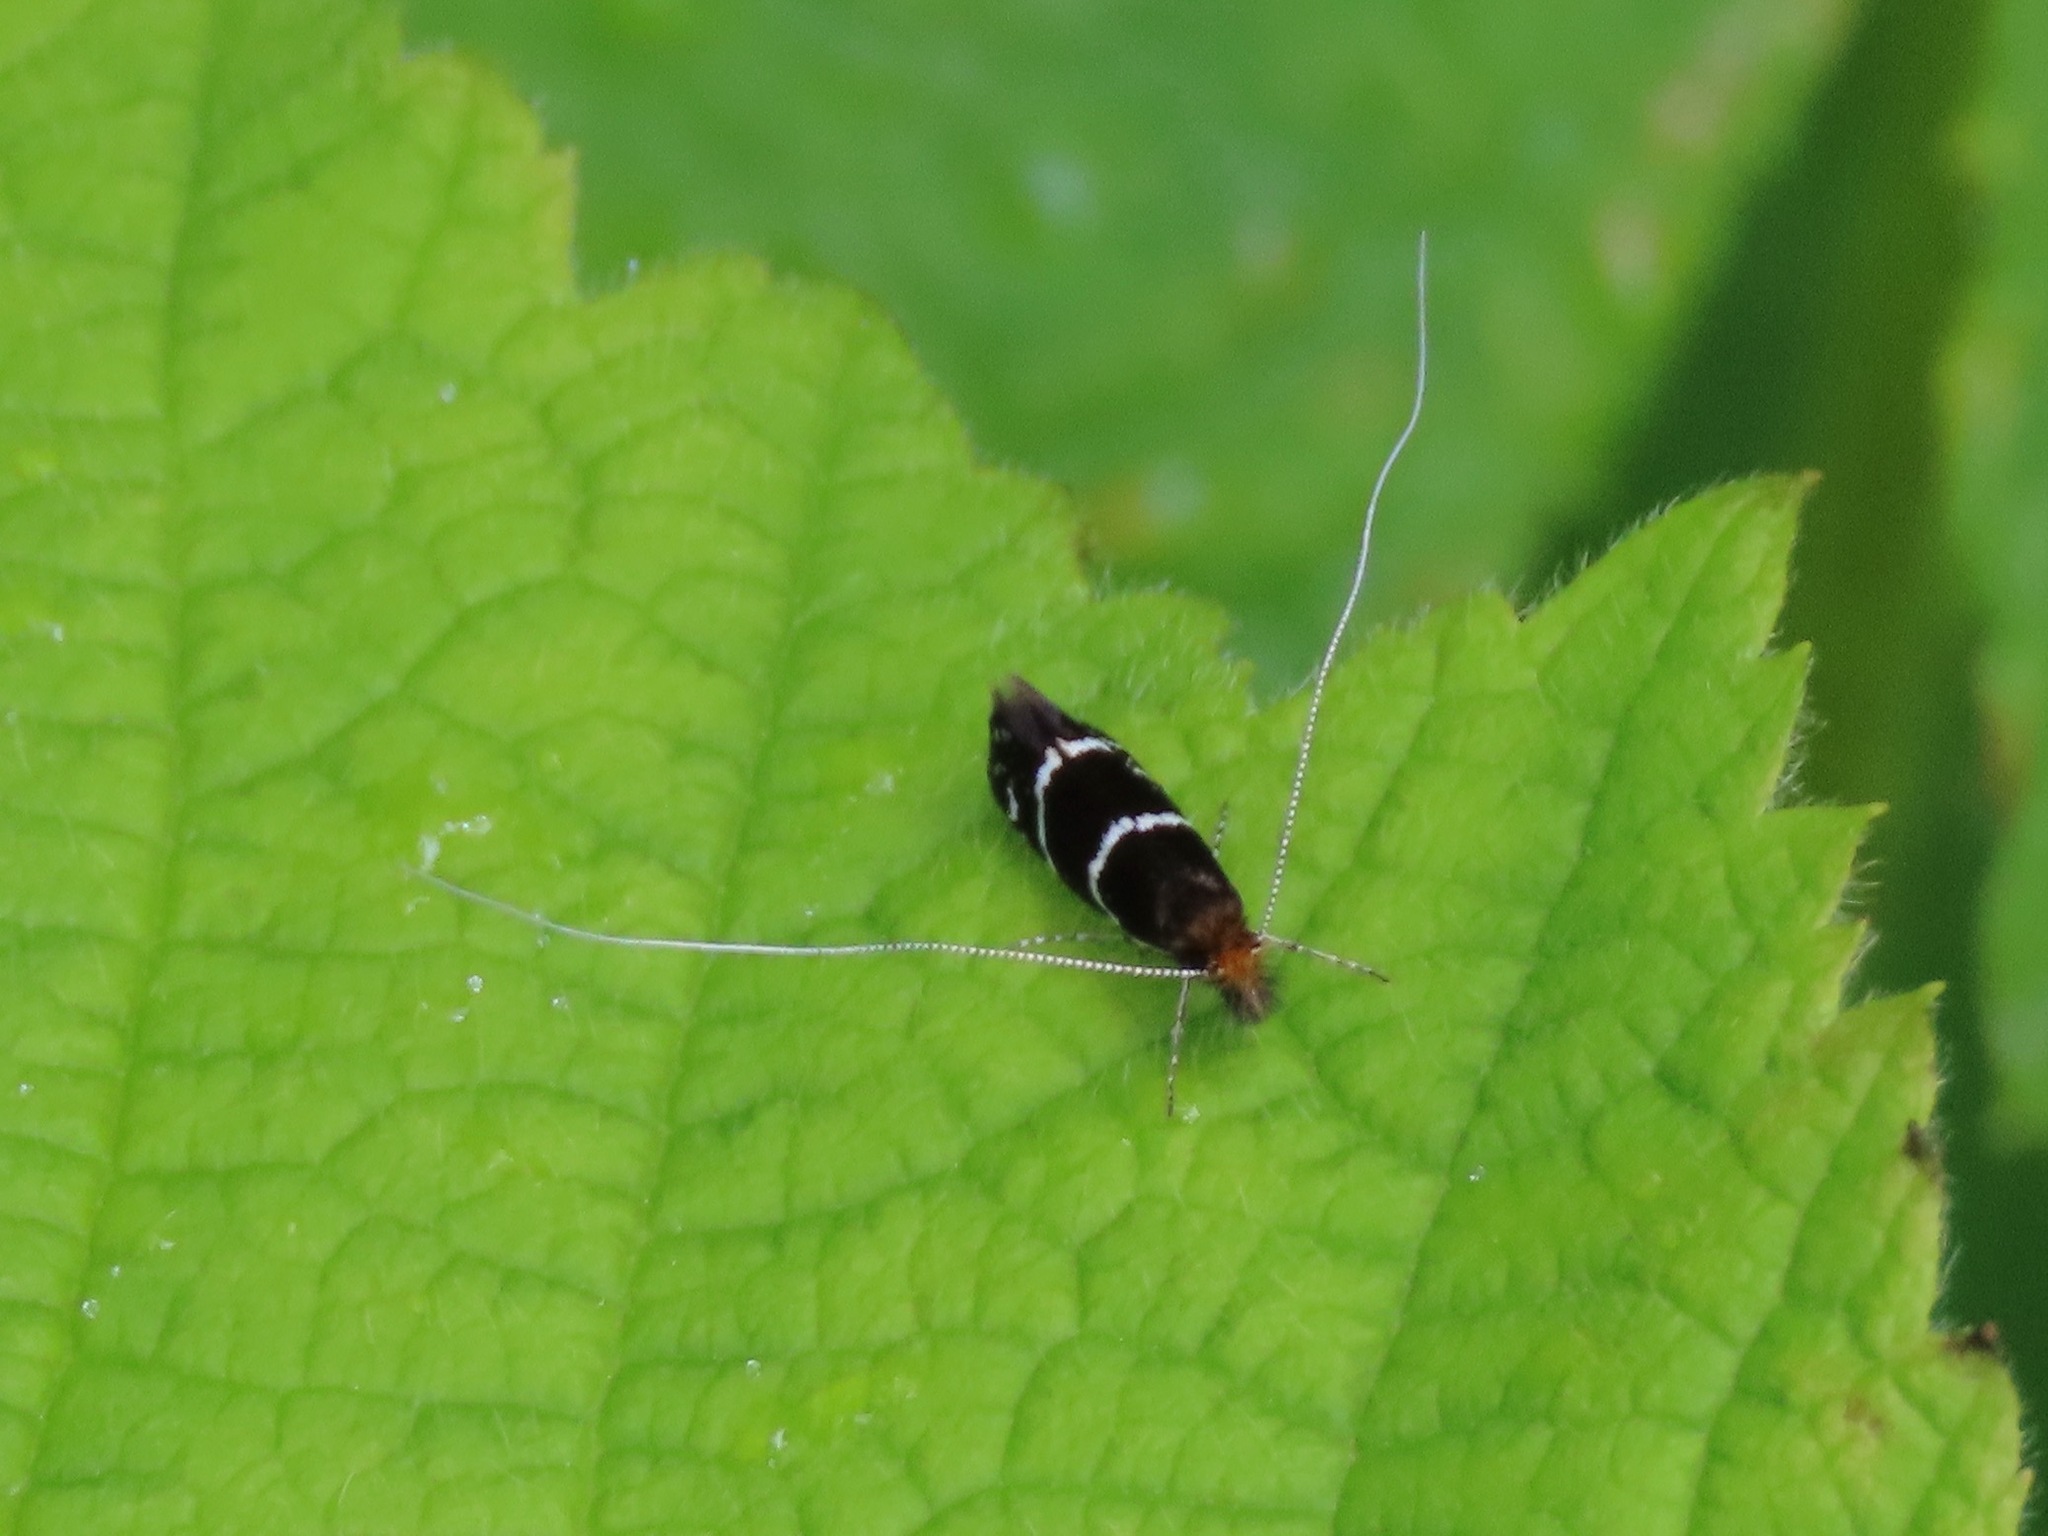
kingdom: Animalia
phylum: Arthropoda
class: Insecta
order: Lepidoptera
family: Adelidae
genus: Adela
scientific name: Adela septentrionella
